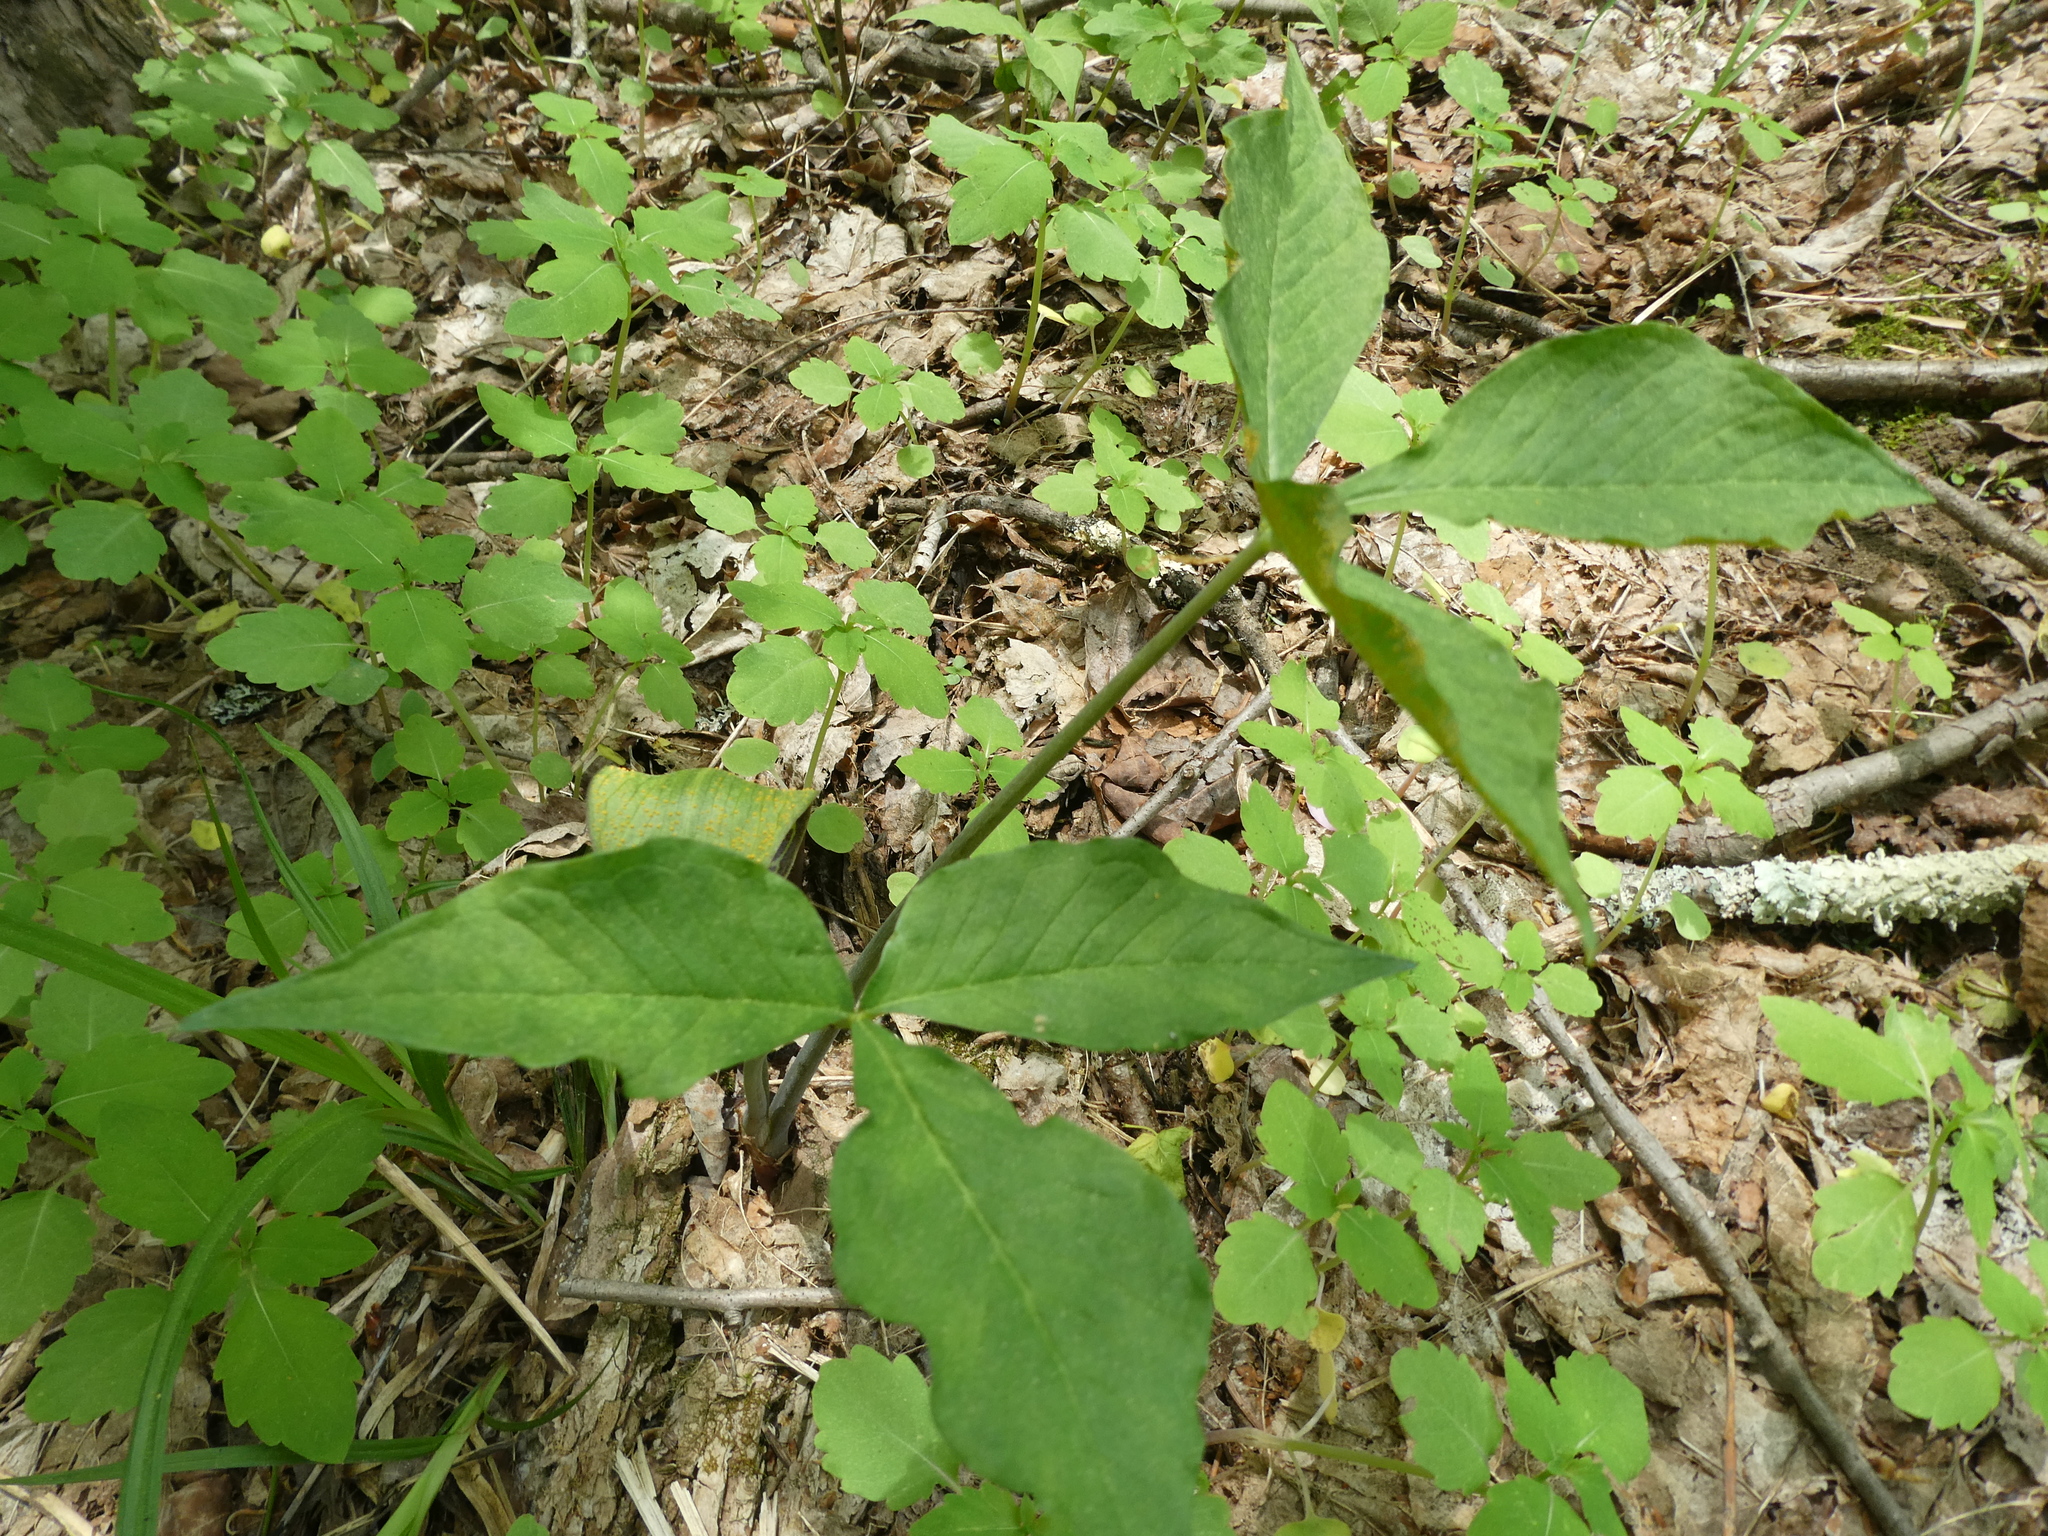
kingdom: Plantae
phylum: Tracheophyta
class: Liliopsida
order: Alismatales
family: Araceae
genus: Arisaema
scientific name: Arisaema triphyllum
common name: Jack-in-the-pulpit
